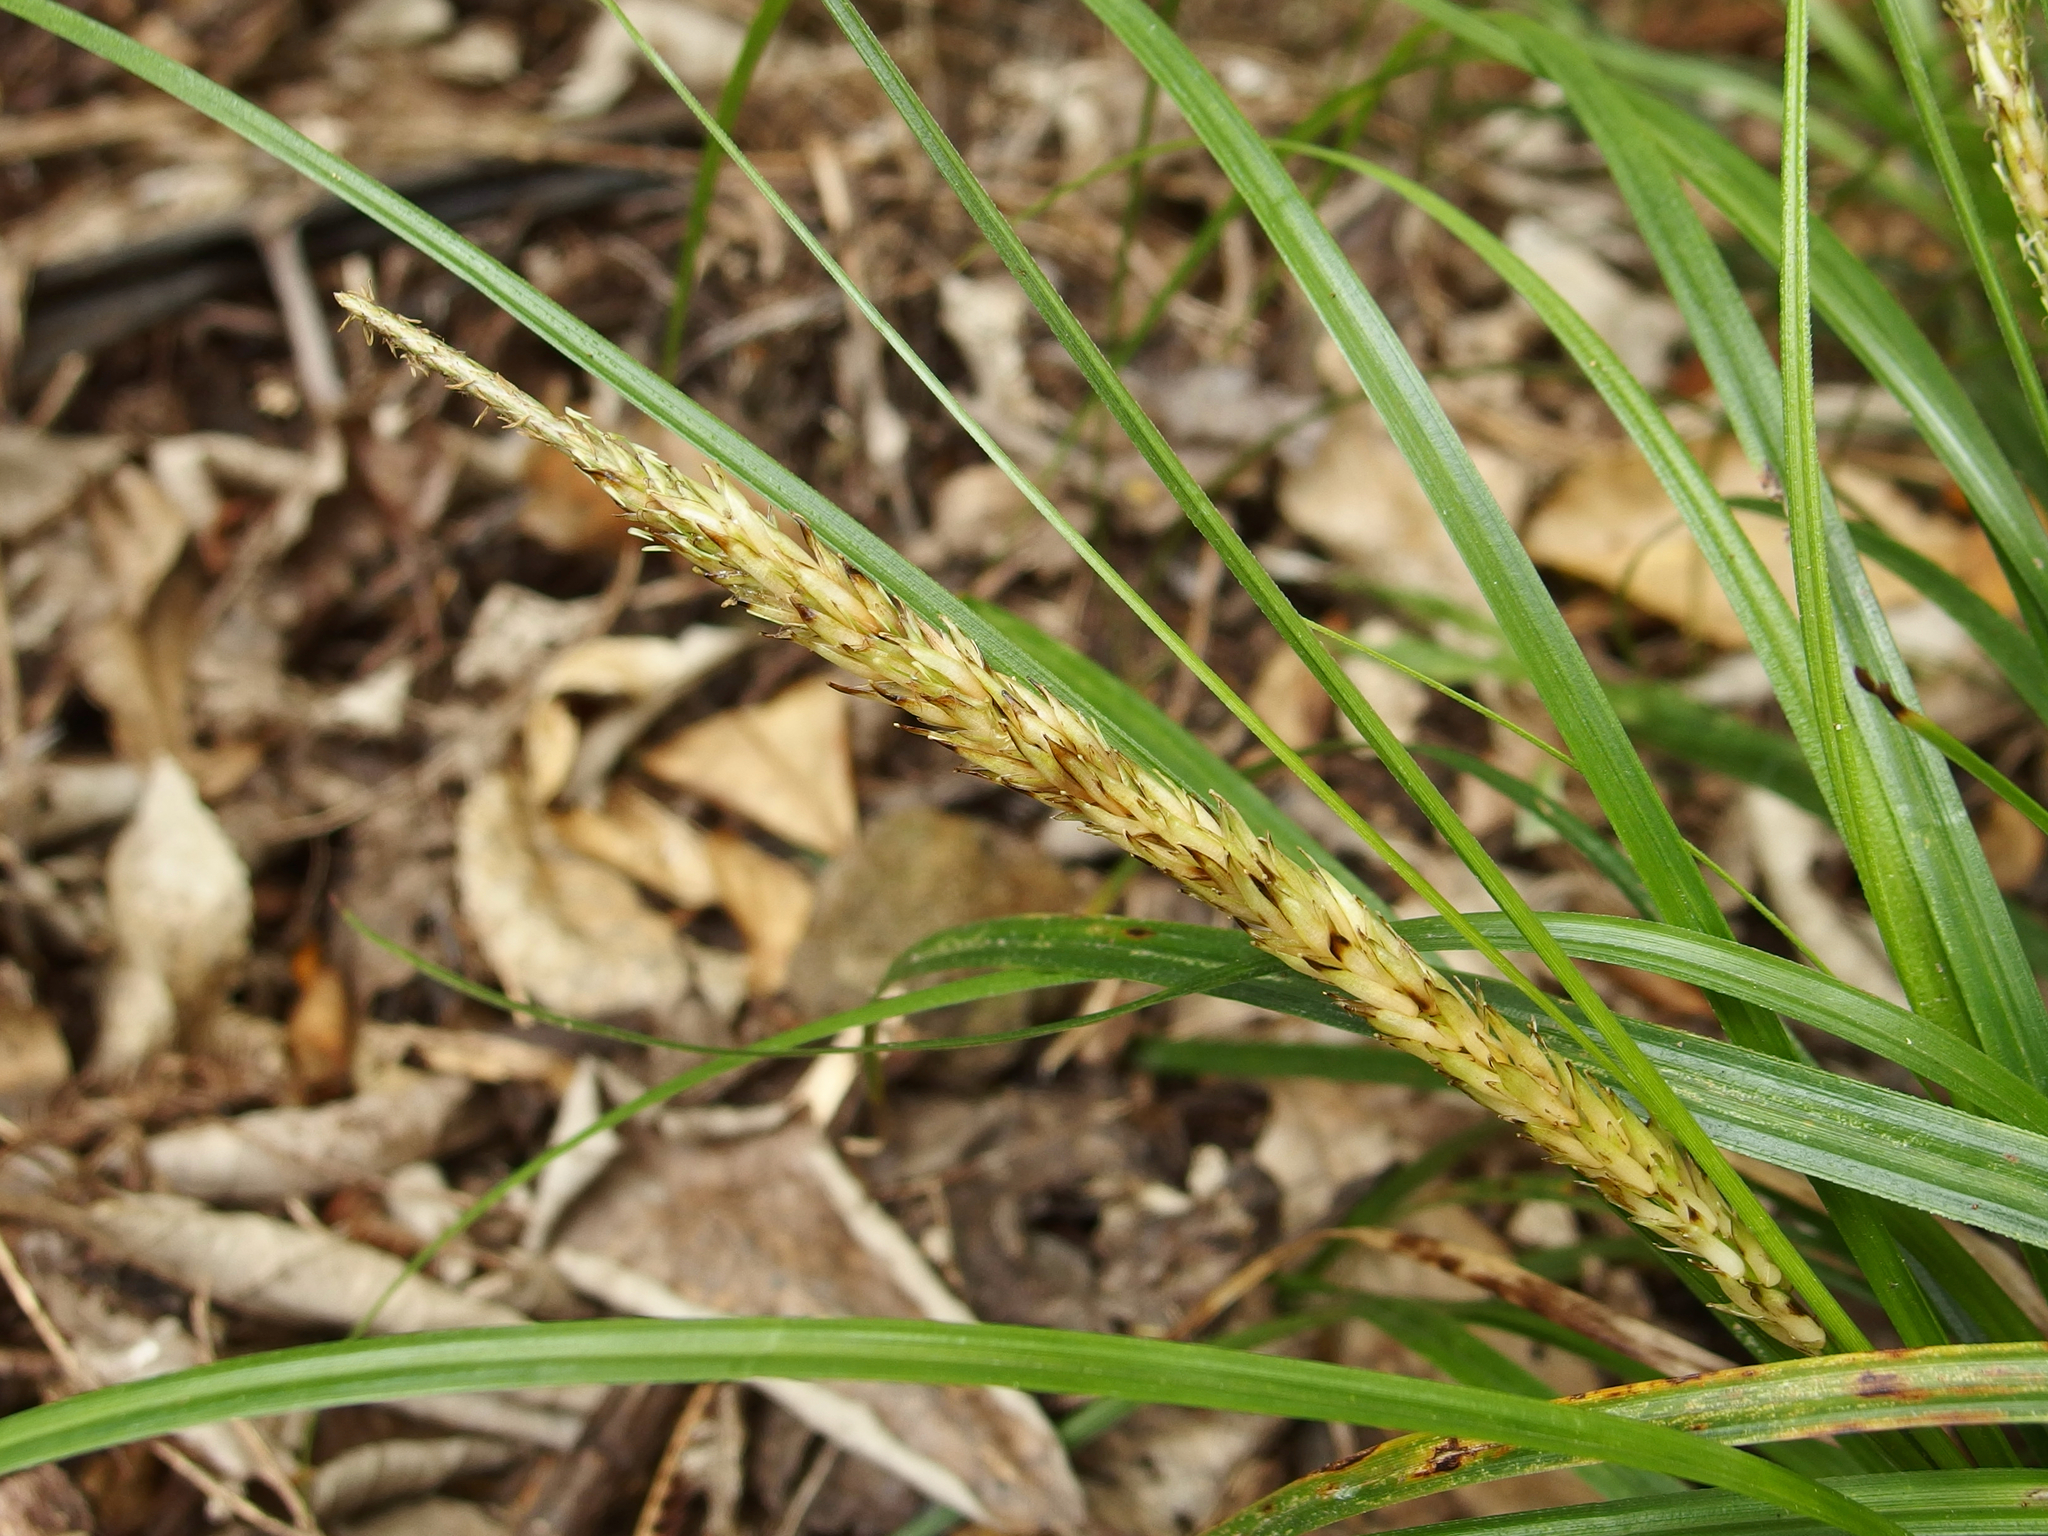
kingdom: Plantae
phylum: Tracheophyta
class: Liliopsida
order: Poales
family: Cyperaceae
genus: Carex
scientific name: Carex uncinata
